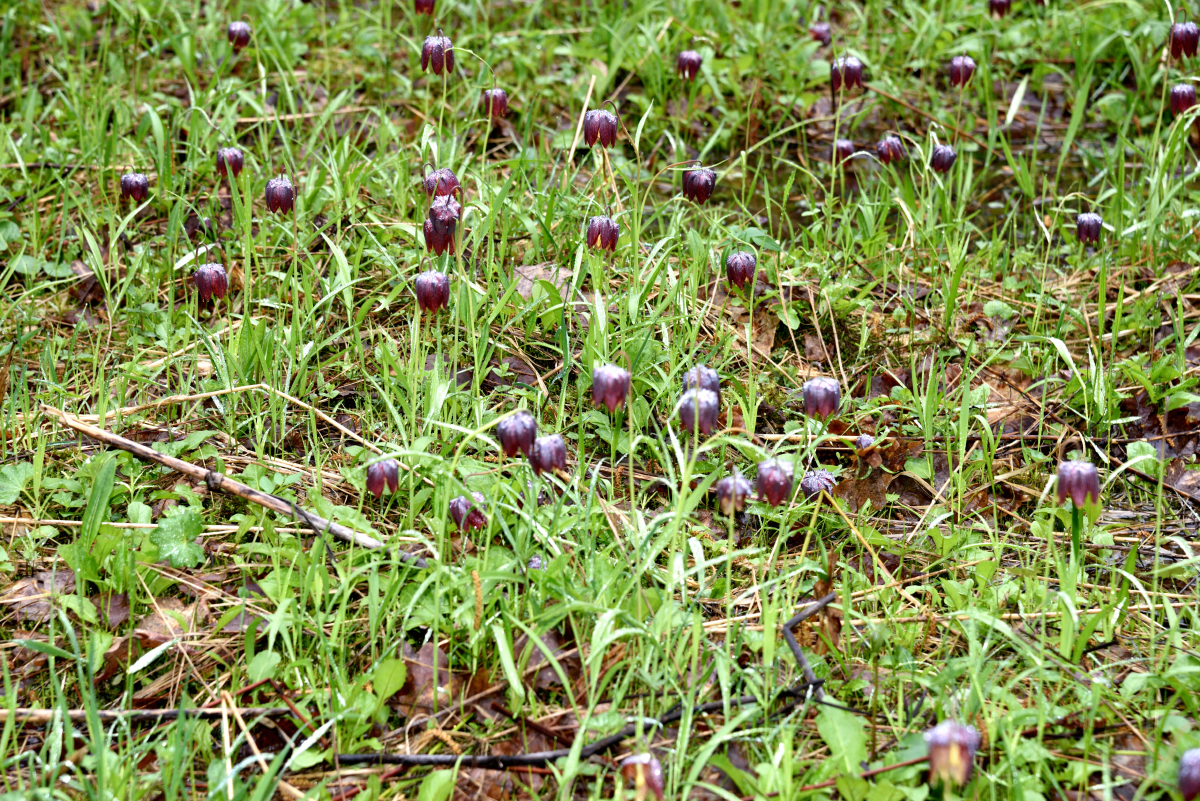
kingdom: Plantae
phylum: Tracheophyta
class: Liliopsida
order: Liliales
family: Liliaceae
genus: Fritillaria
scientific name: Fritillaria meleagris
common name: Fritillary
